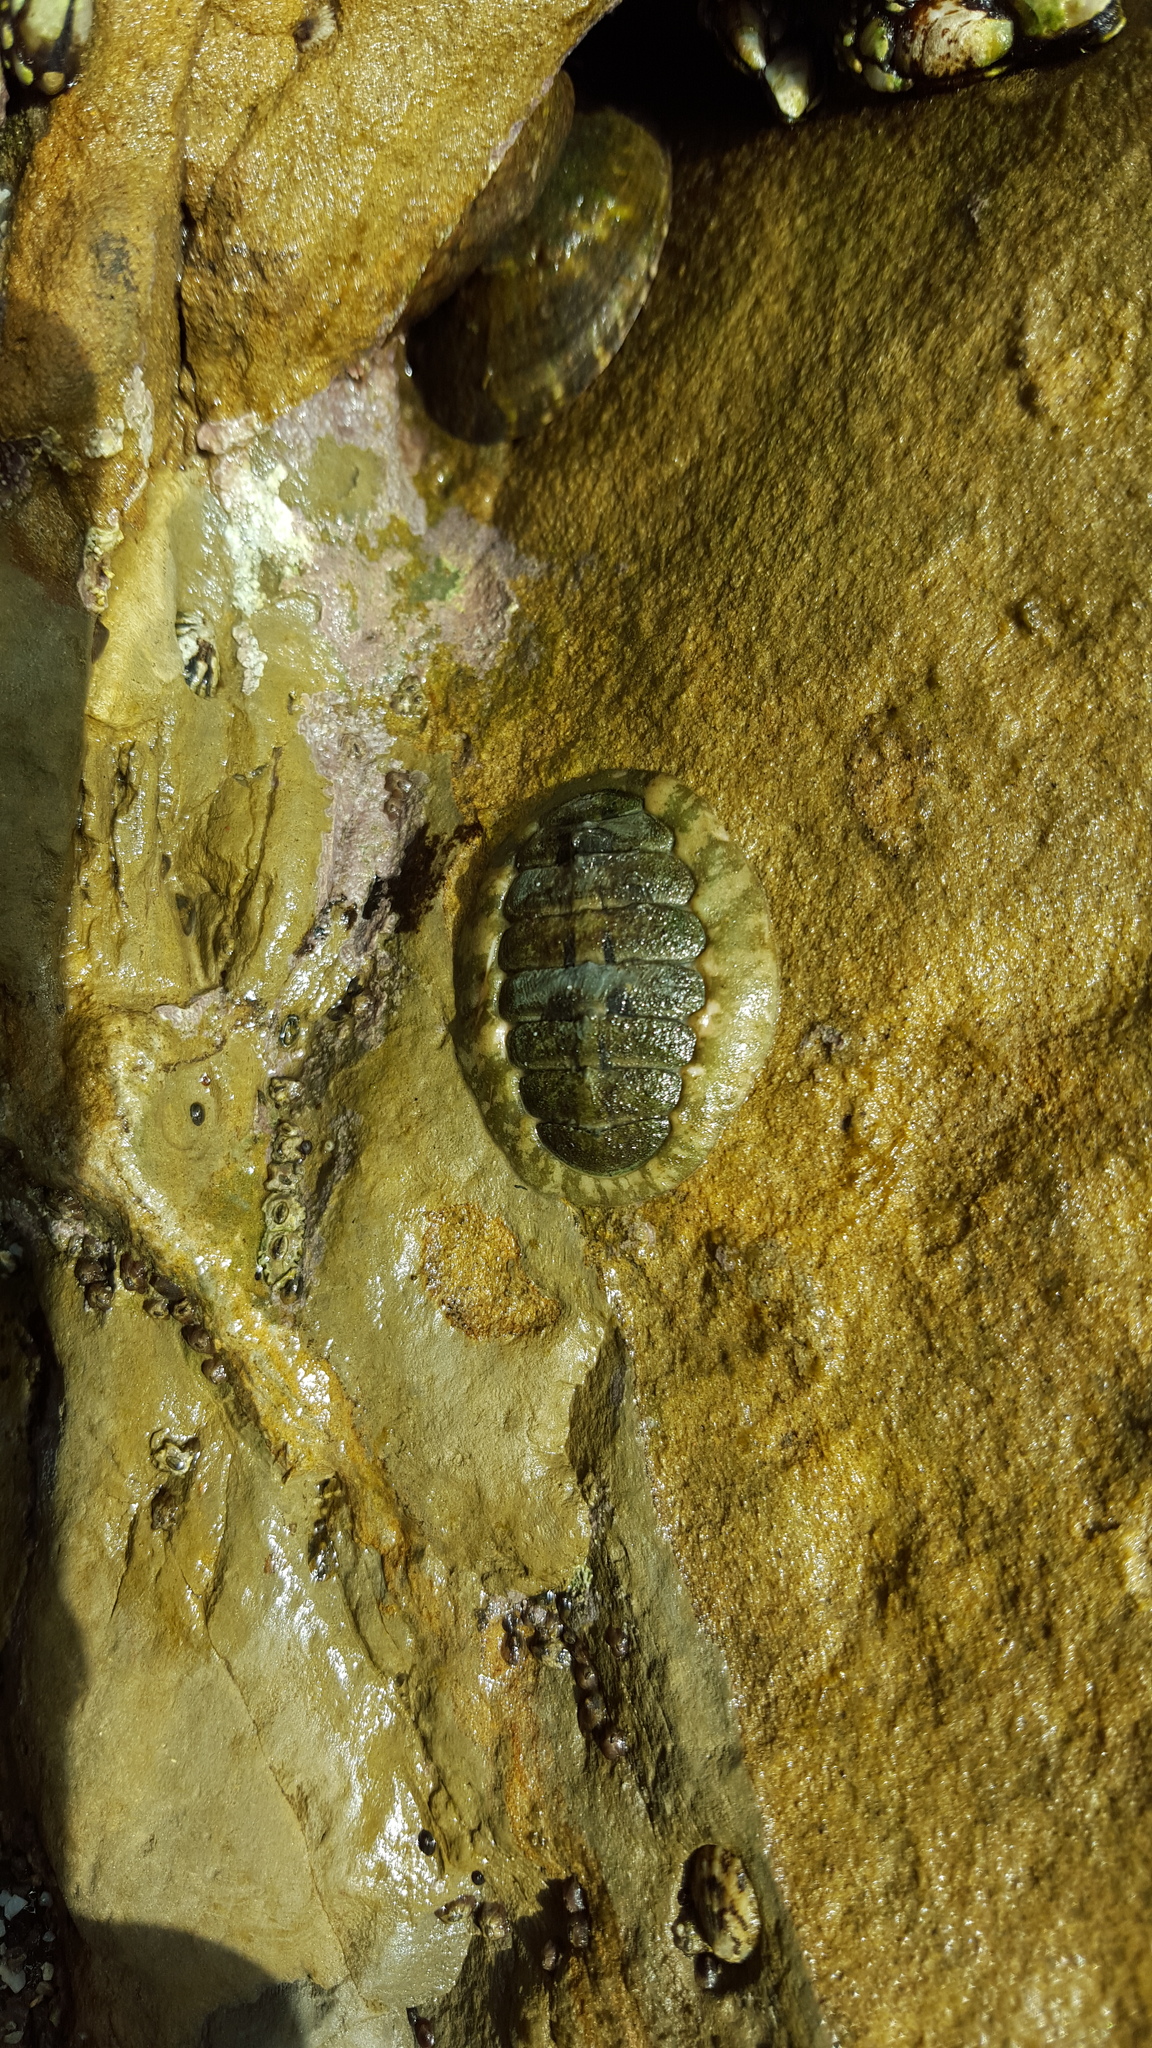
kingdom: Animalia
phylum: Mollusca
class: Polyplacophora
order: Chitonida
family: Tonicellidae
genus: Cyanoplax
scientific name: Cyanoplax hartwegii
